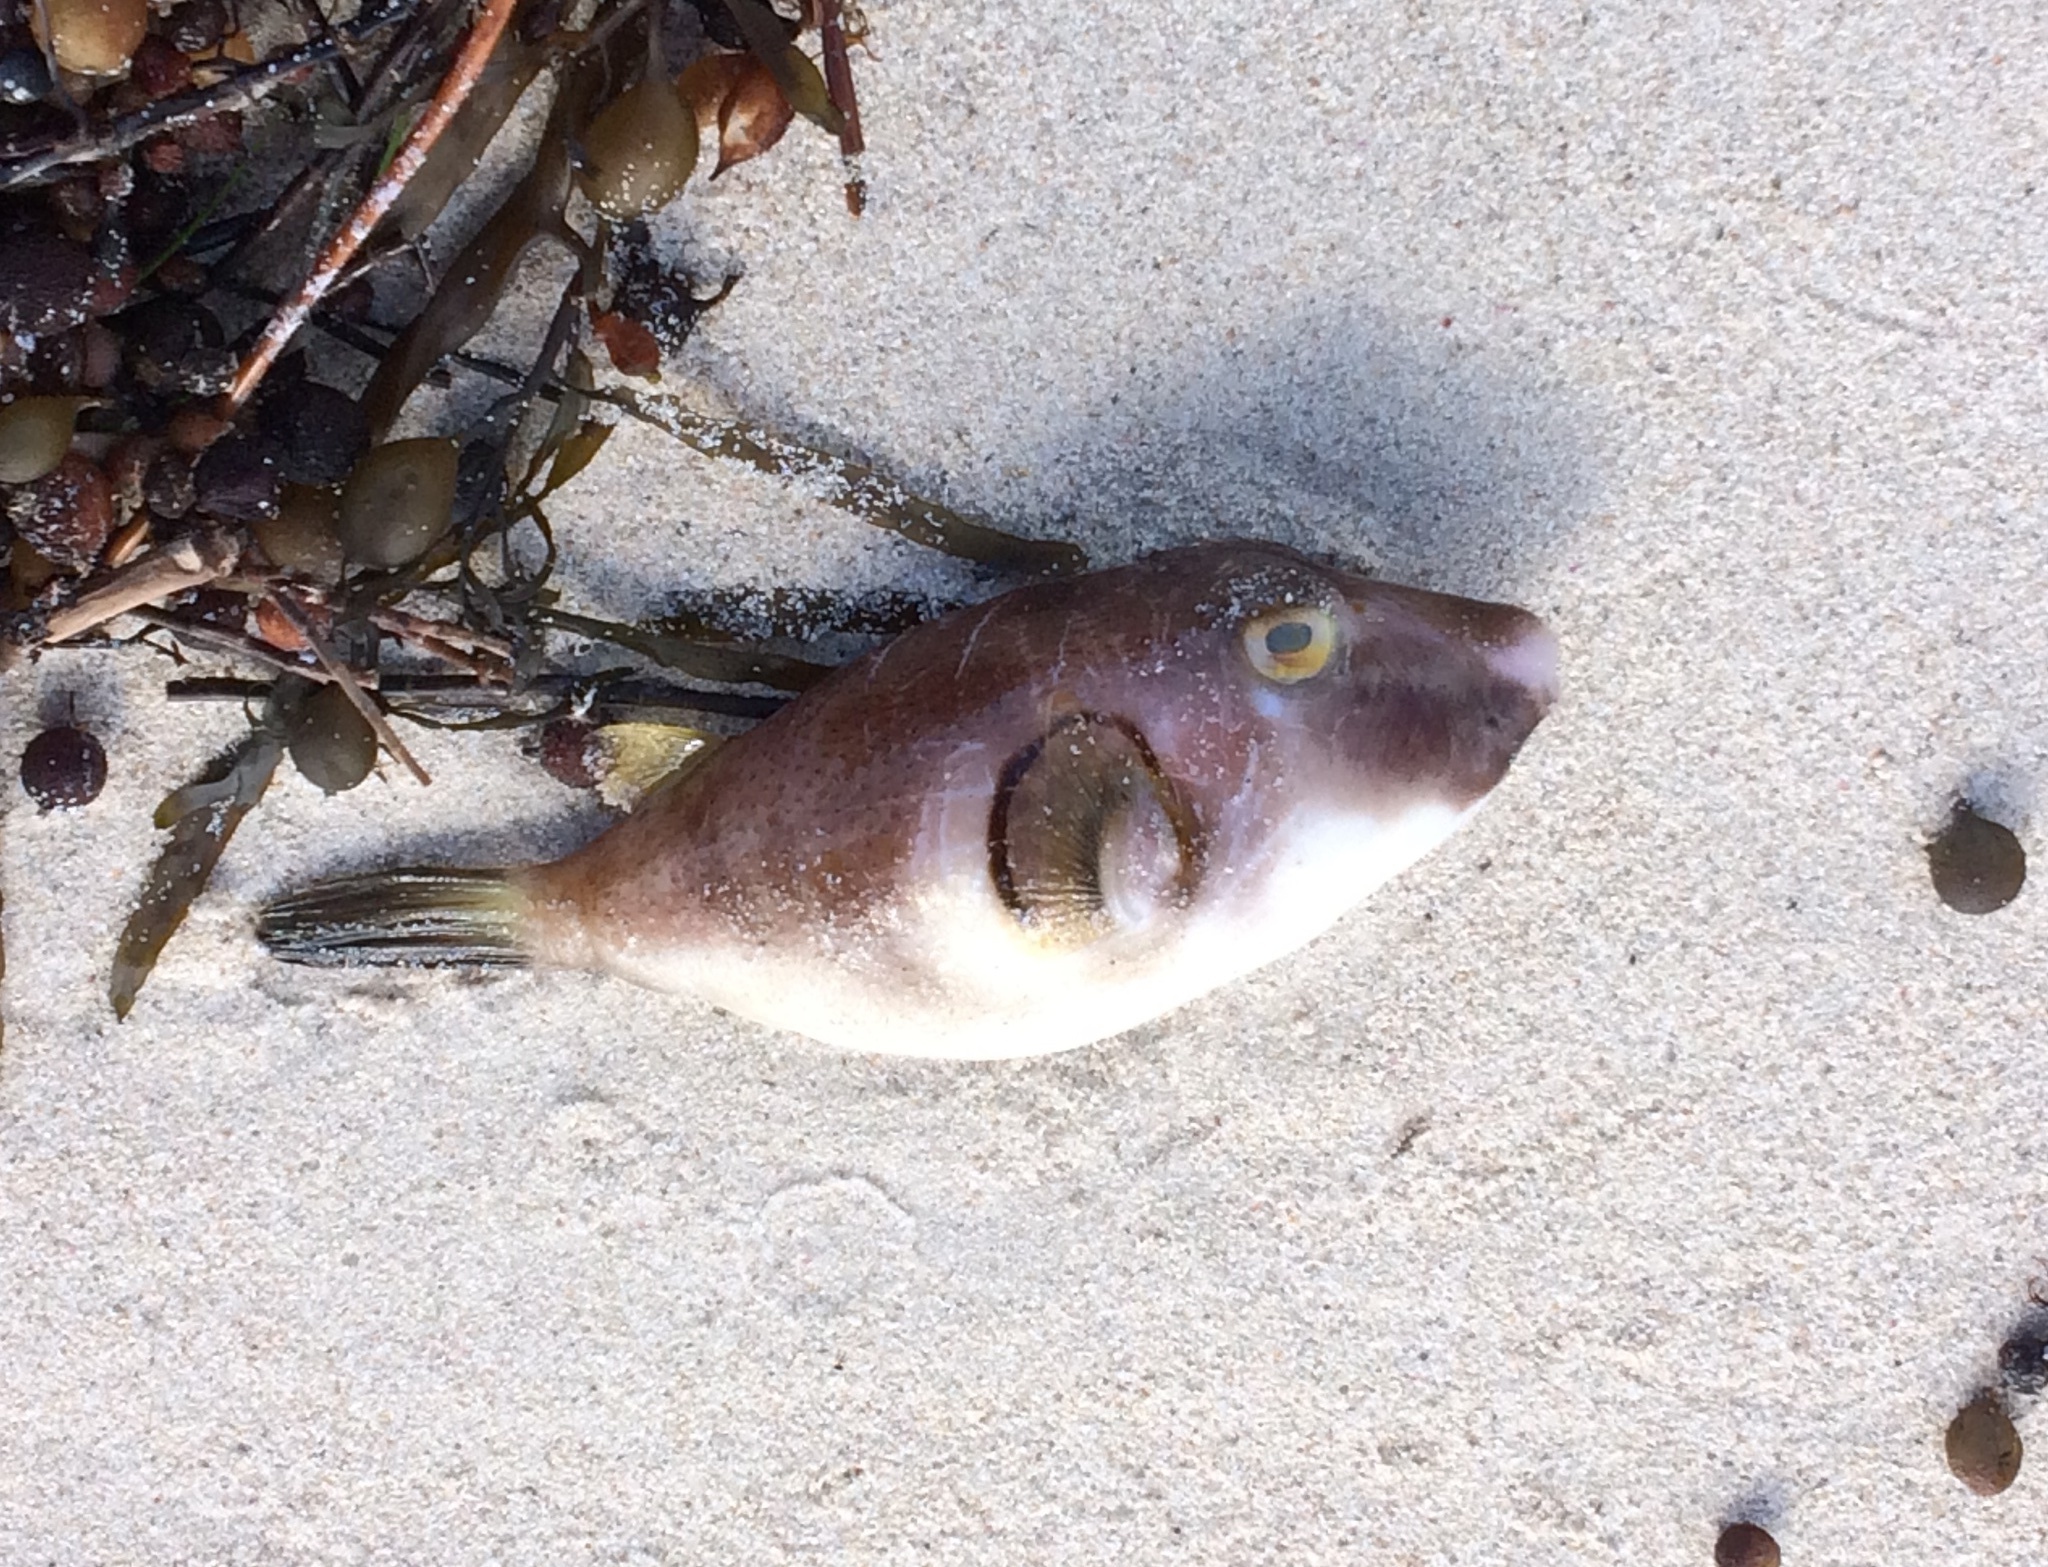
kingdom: Animalia
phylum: Chordata
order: Tetraodontiformes
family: Tetraodontidae
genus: Omegophora
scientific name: Omegophora armilla
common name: Ringed pufferfish
